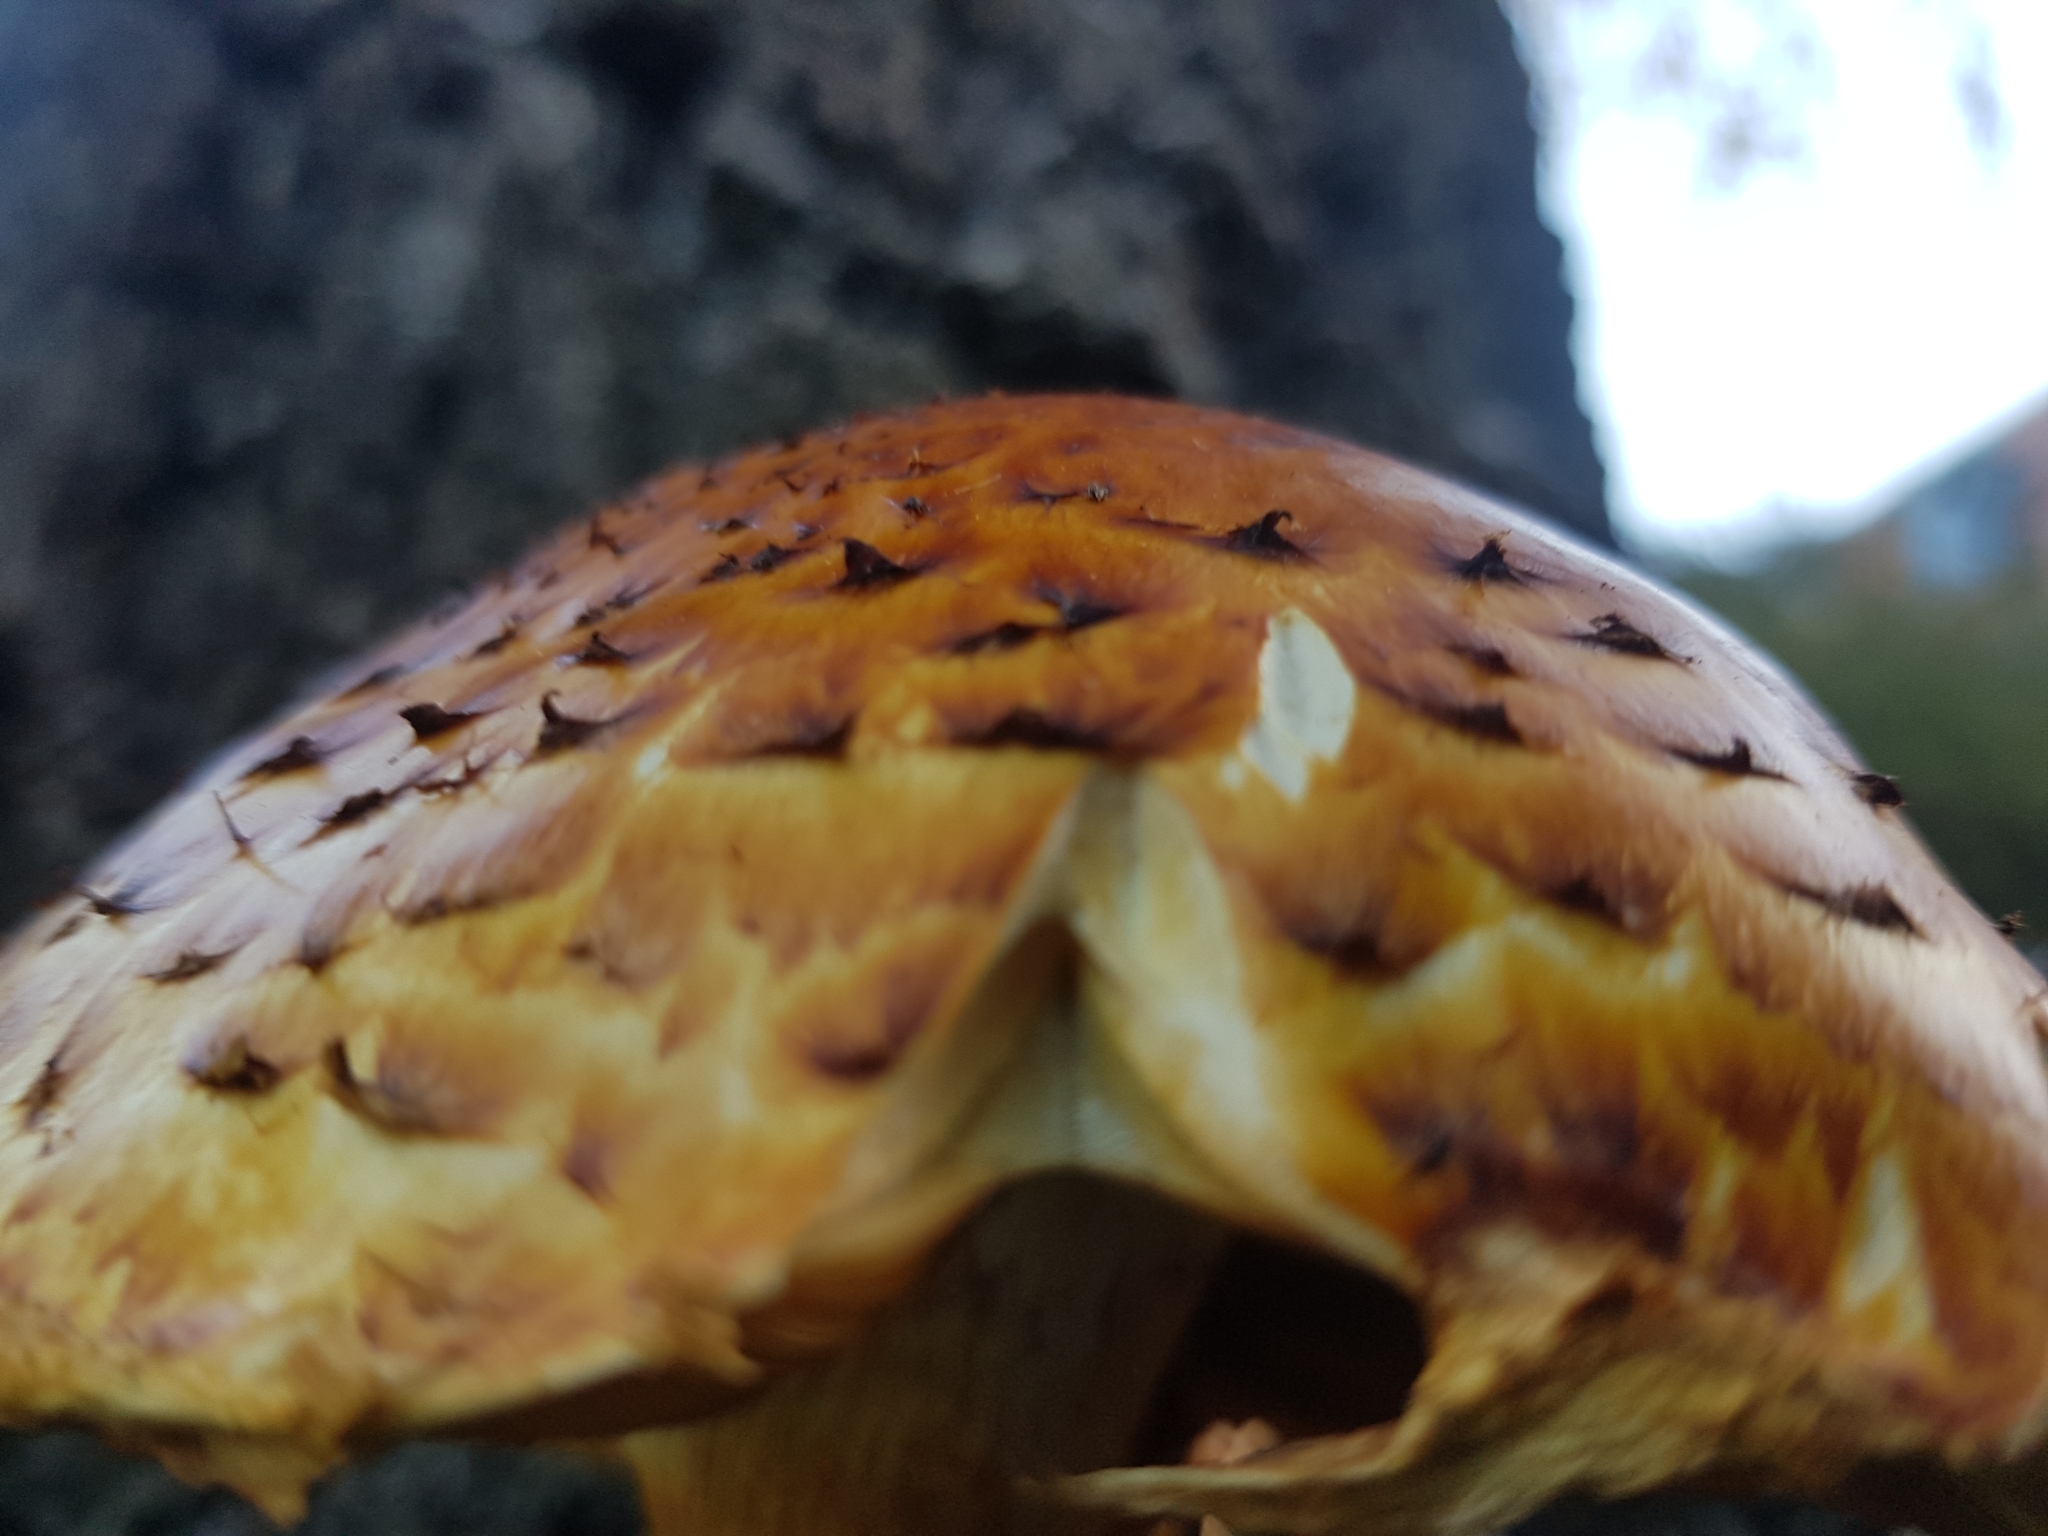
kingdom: Fungi
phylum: Basidiomycota
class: Agaricomycetes
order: Agaricales
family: Strophariaceae
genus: Pholiota
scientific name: Pholiota aurivella
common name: Golden scalycap
